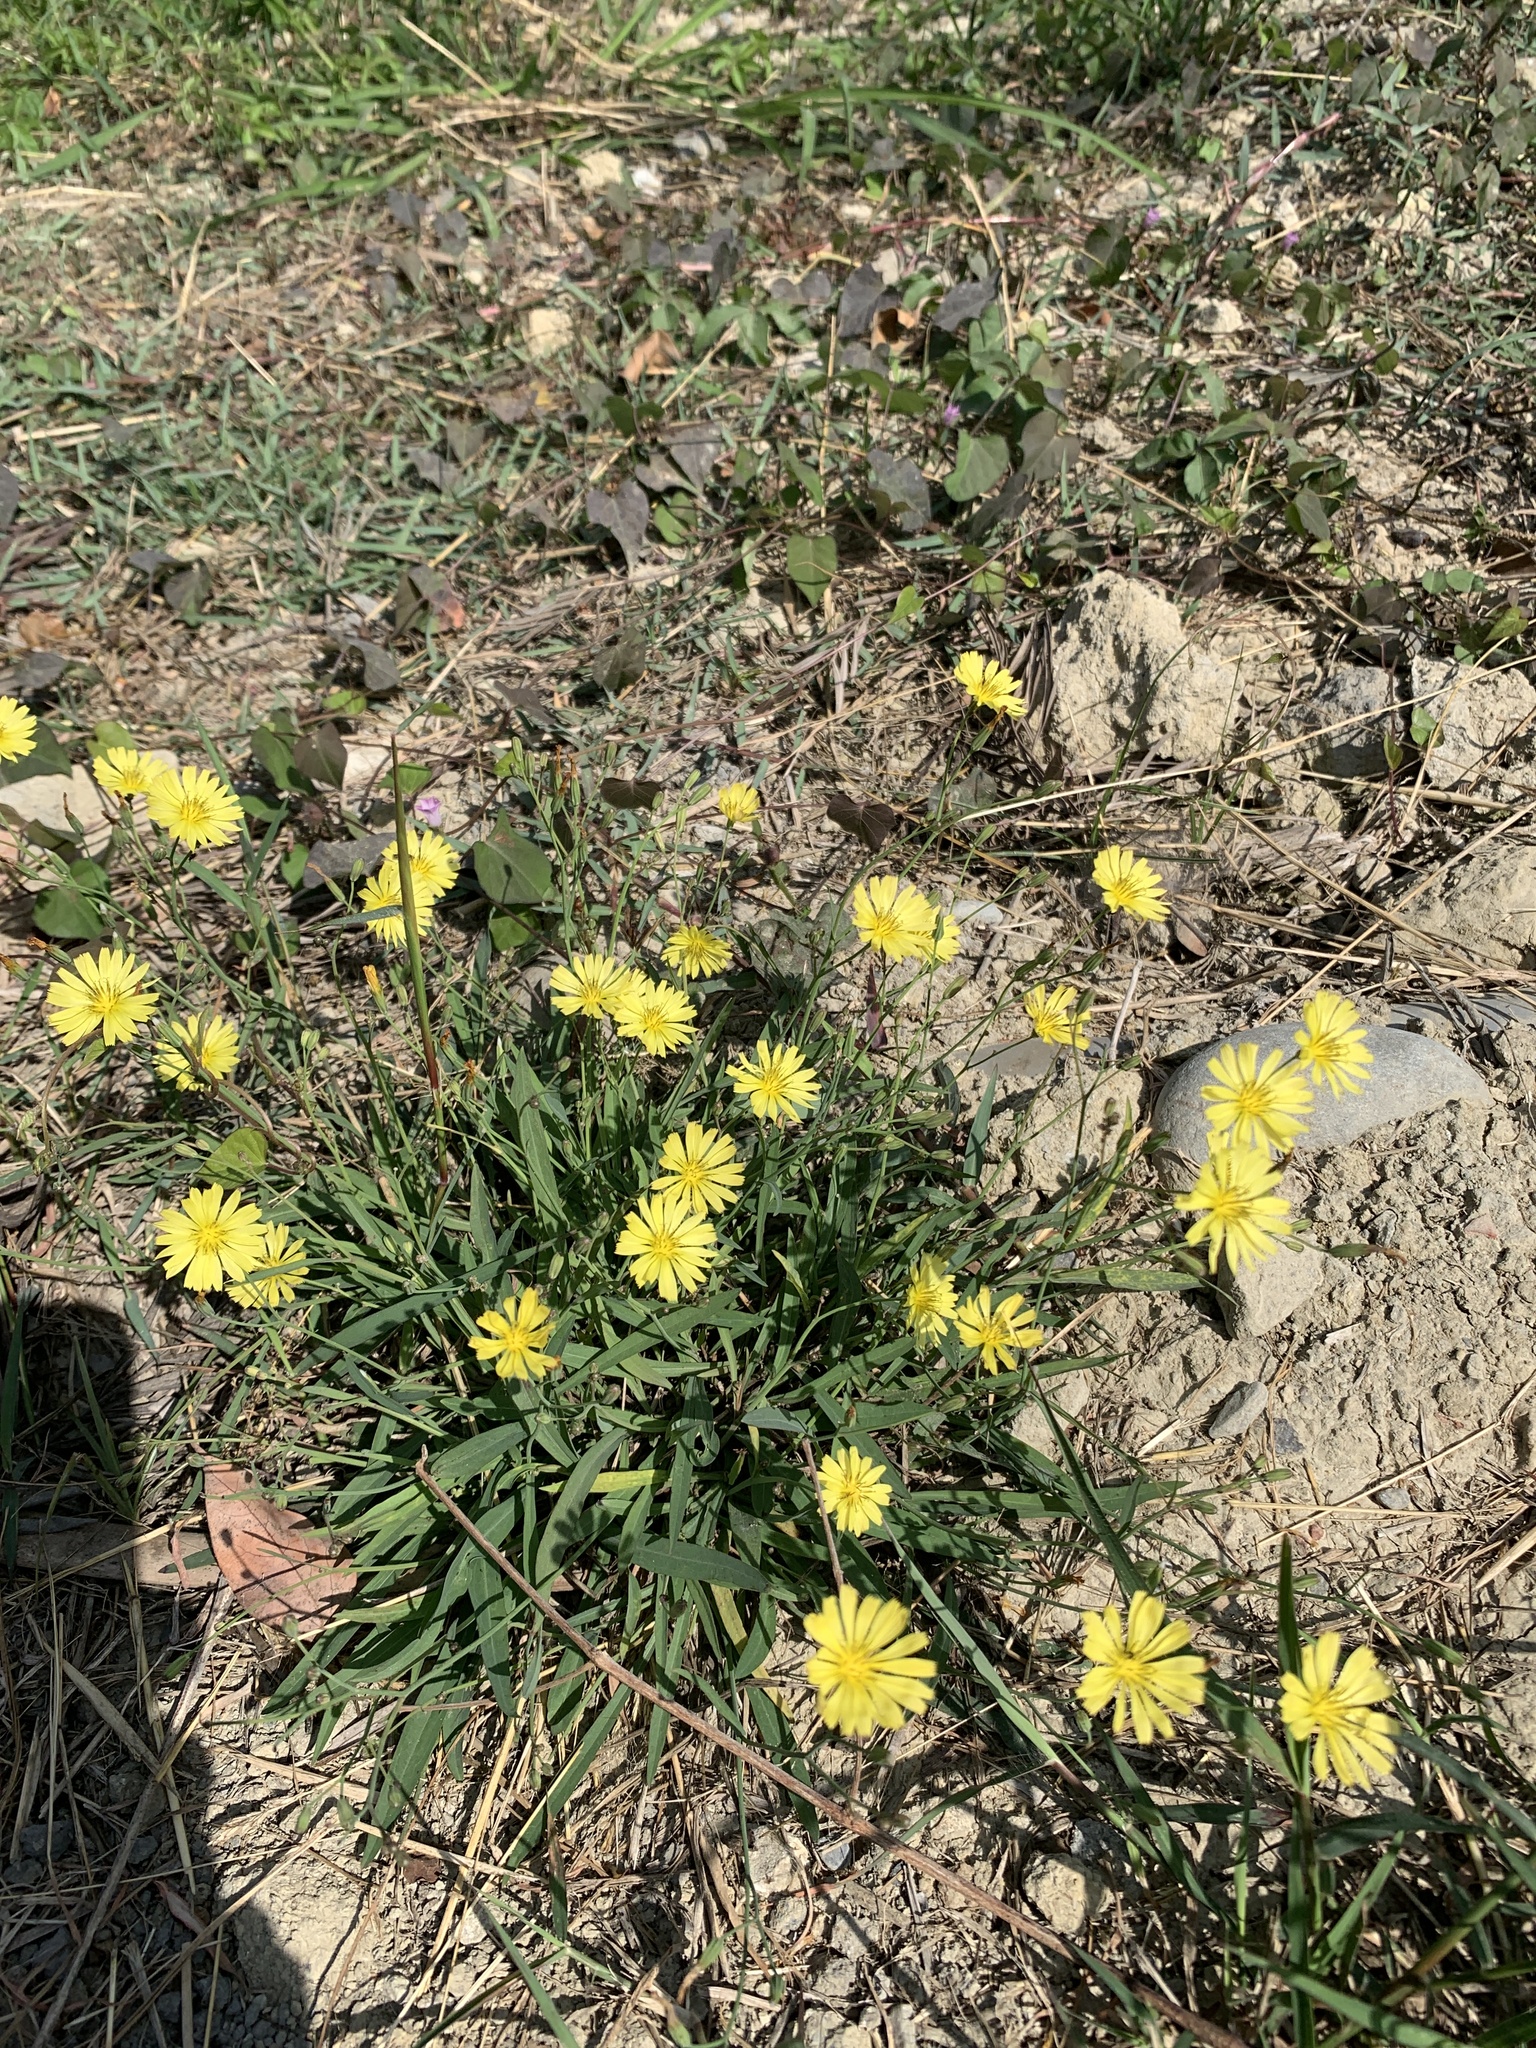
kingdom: Plantae
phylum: Tracheophyta
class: Magnoliopsida
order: Asterales
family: Asteraceae
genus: Ixeris
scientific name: Ixeris chinensis
